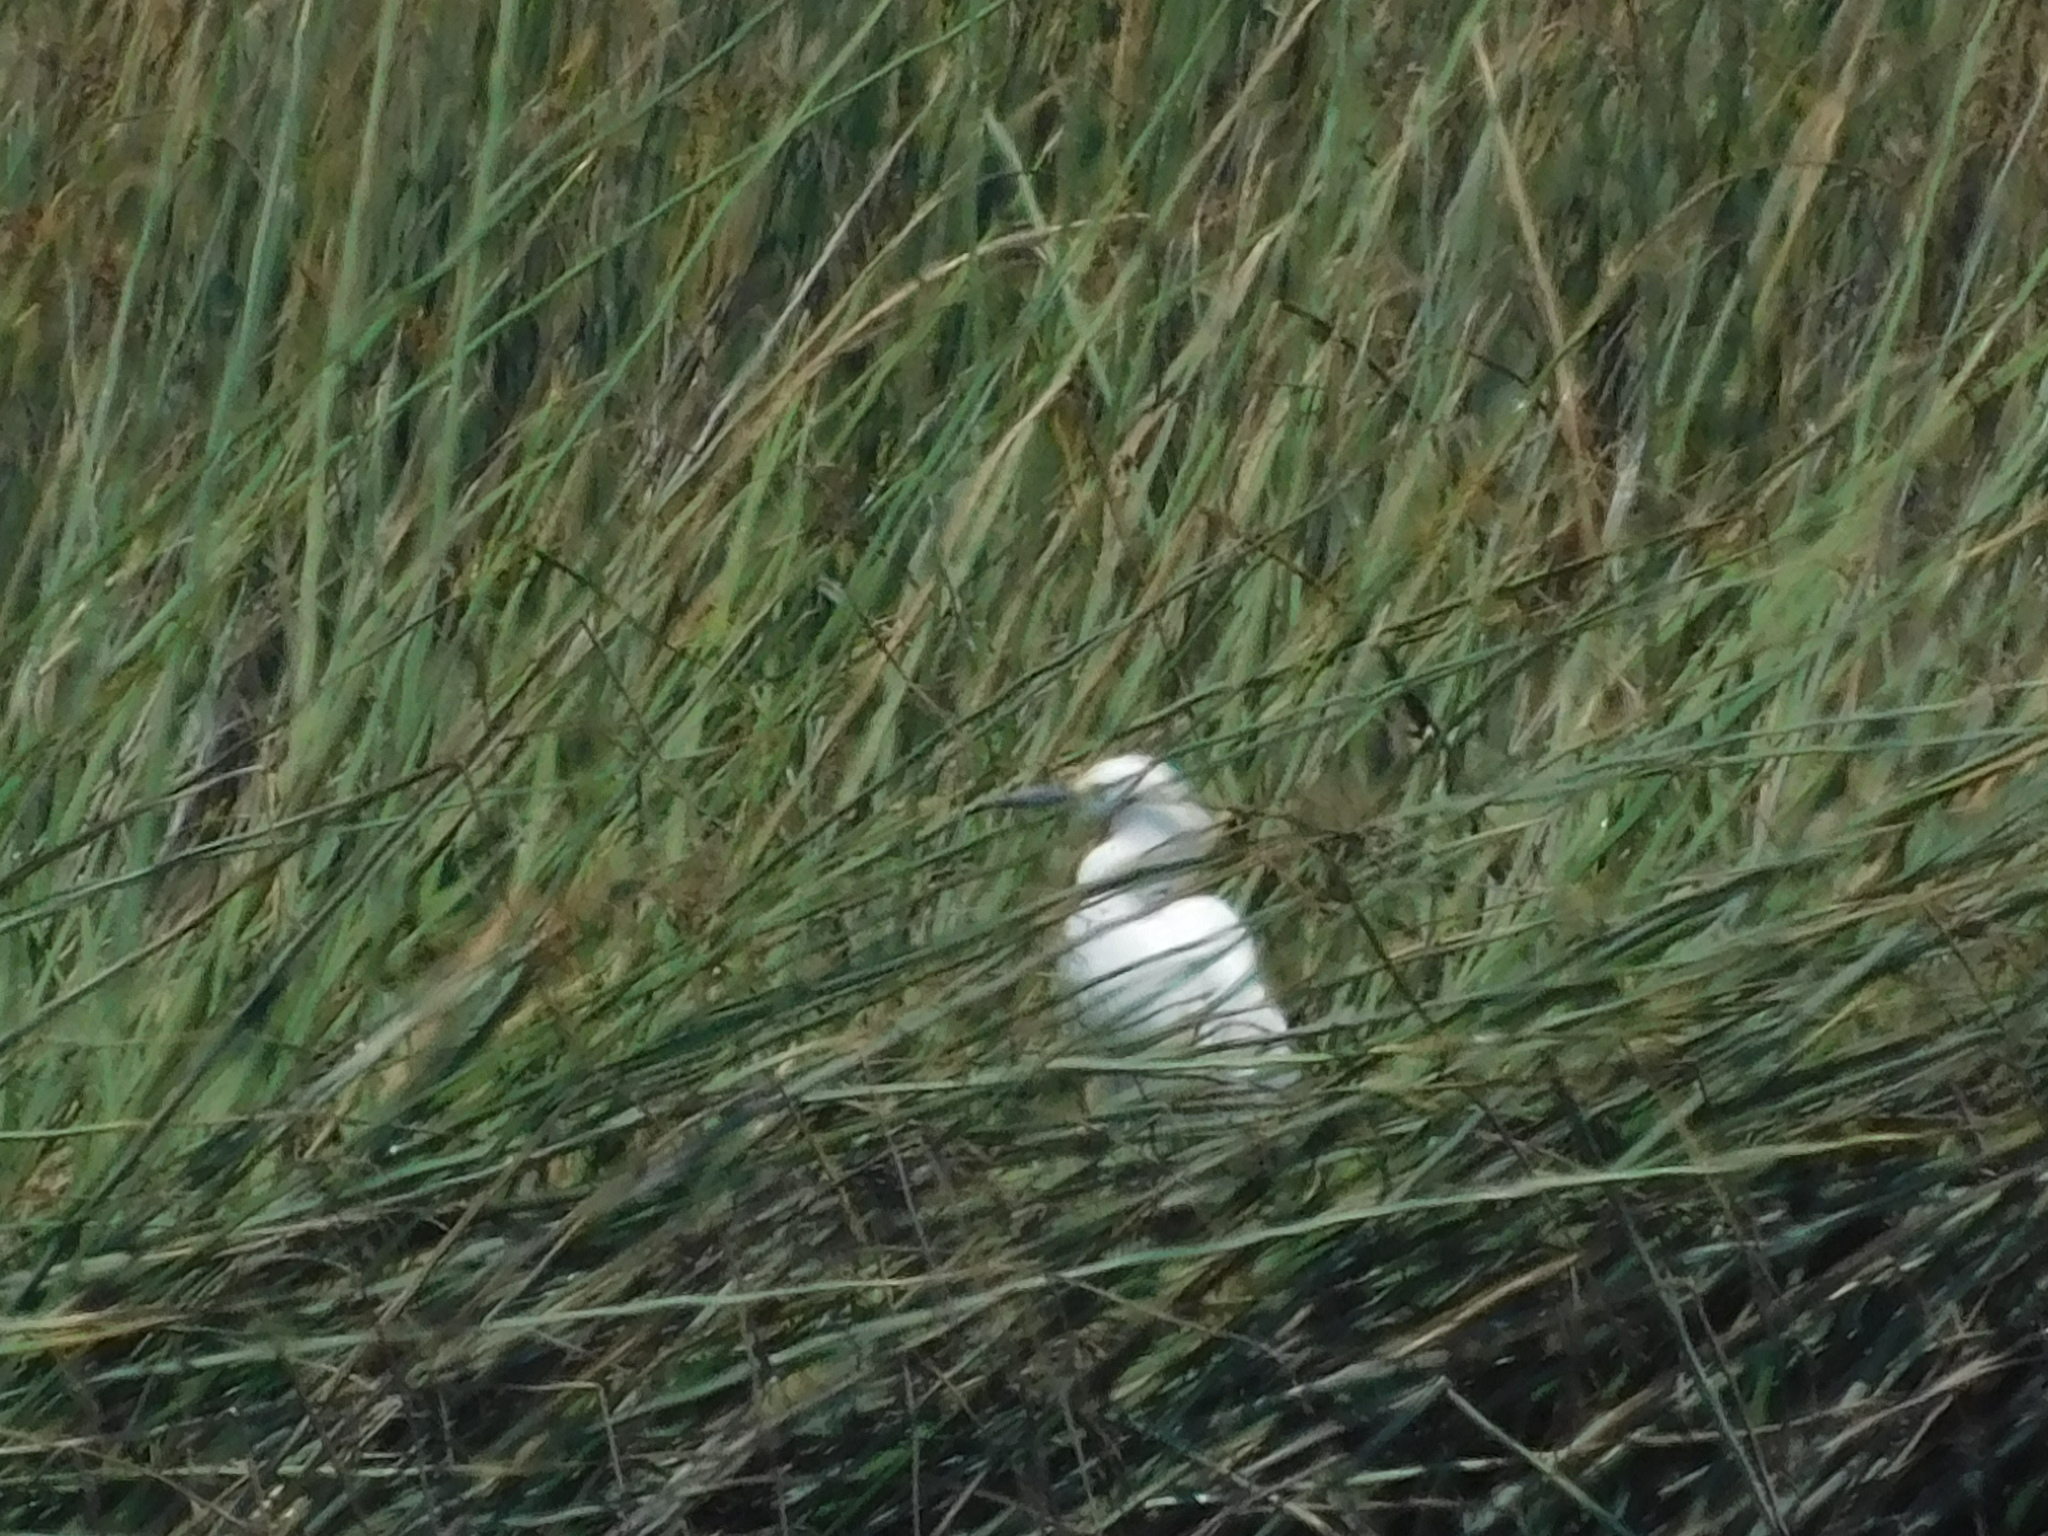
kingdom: Animalia
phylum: Chordata
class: Aves
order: Pelecaniformes
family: Ardeidae
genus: Egretta
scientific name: Egretta thula
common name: Snowy egret
